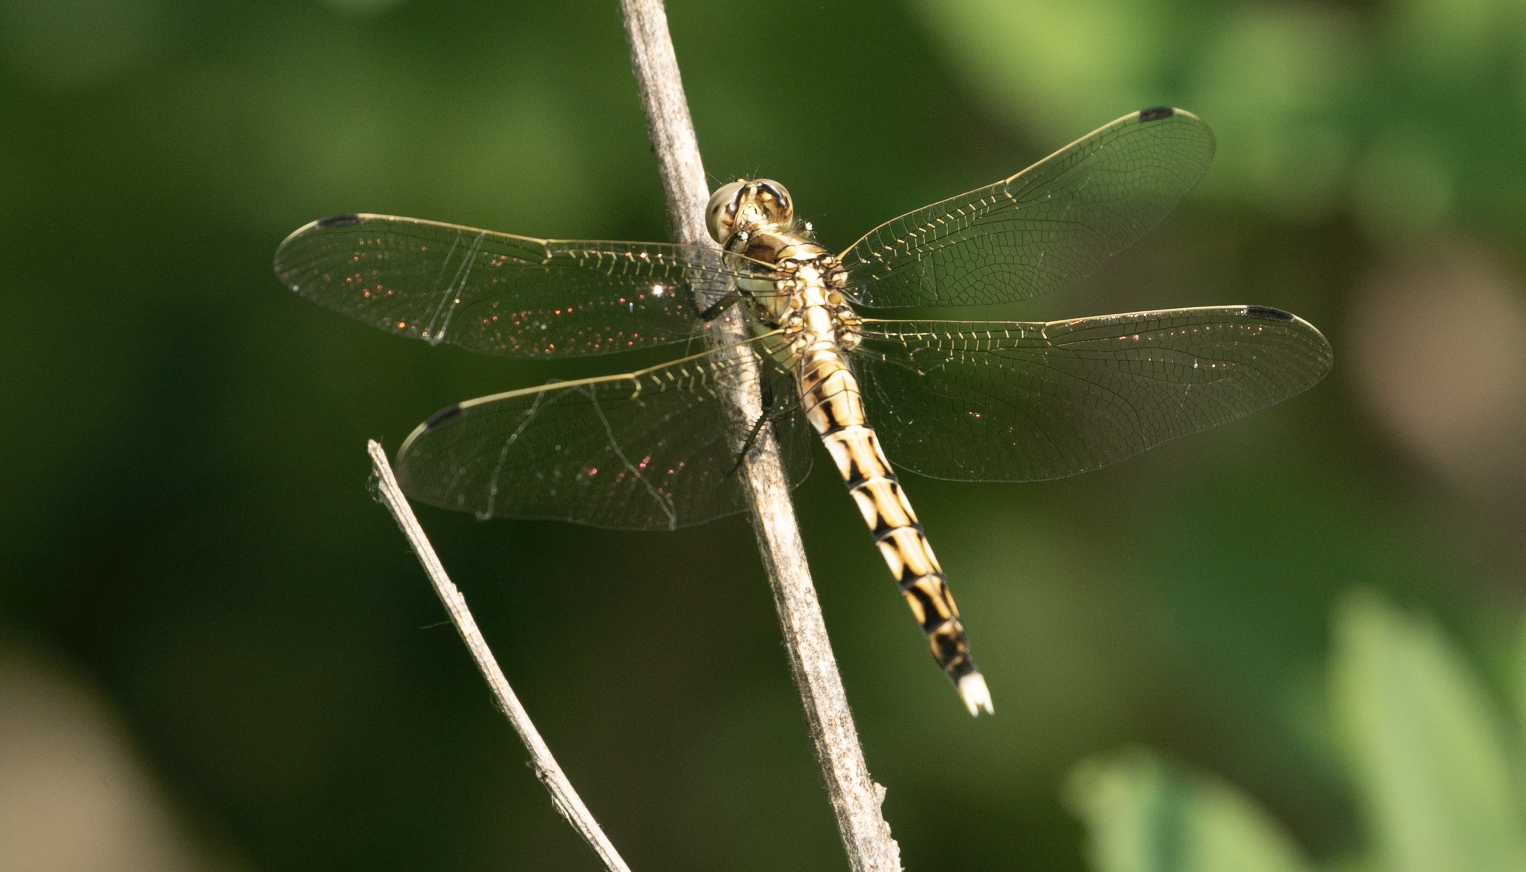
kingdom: Animalia
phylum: Arthropoda
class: Insecta
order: Odonata
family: Libellulidae
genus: Orthetrum
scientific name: Orthetrum albistylum
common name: White-tailed skimmer
